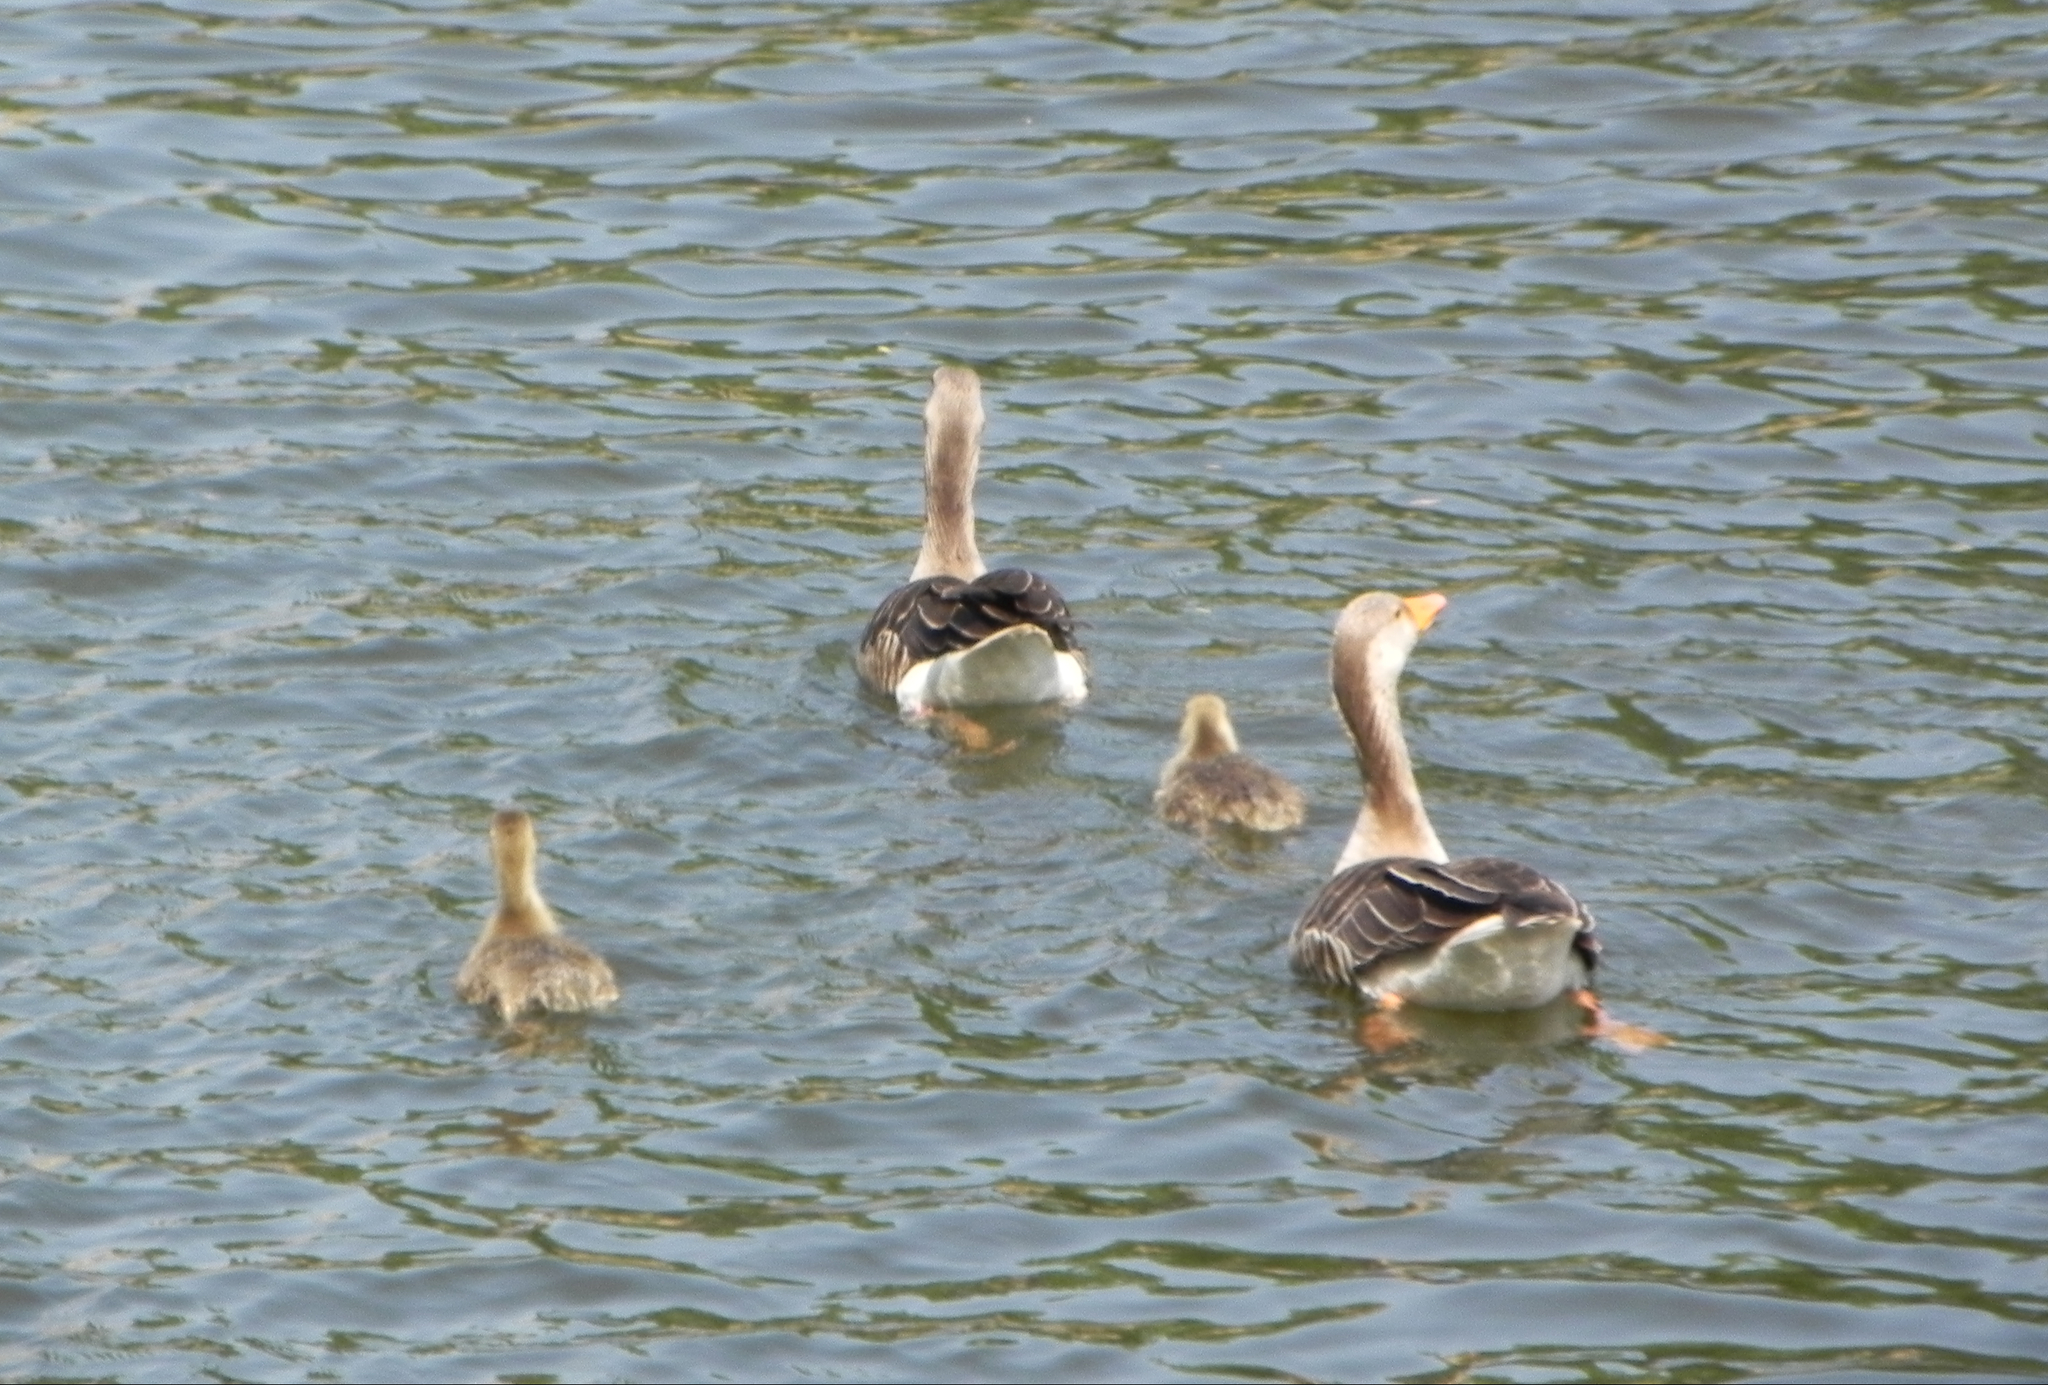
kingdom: Animalia
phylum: Chordata
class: Aves
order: Anseriformes
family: Anatidae
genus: Anser
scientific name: Anser anser
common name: Greylag goose
